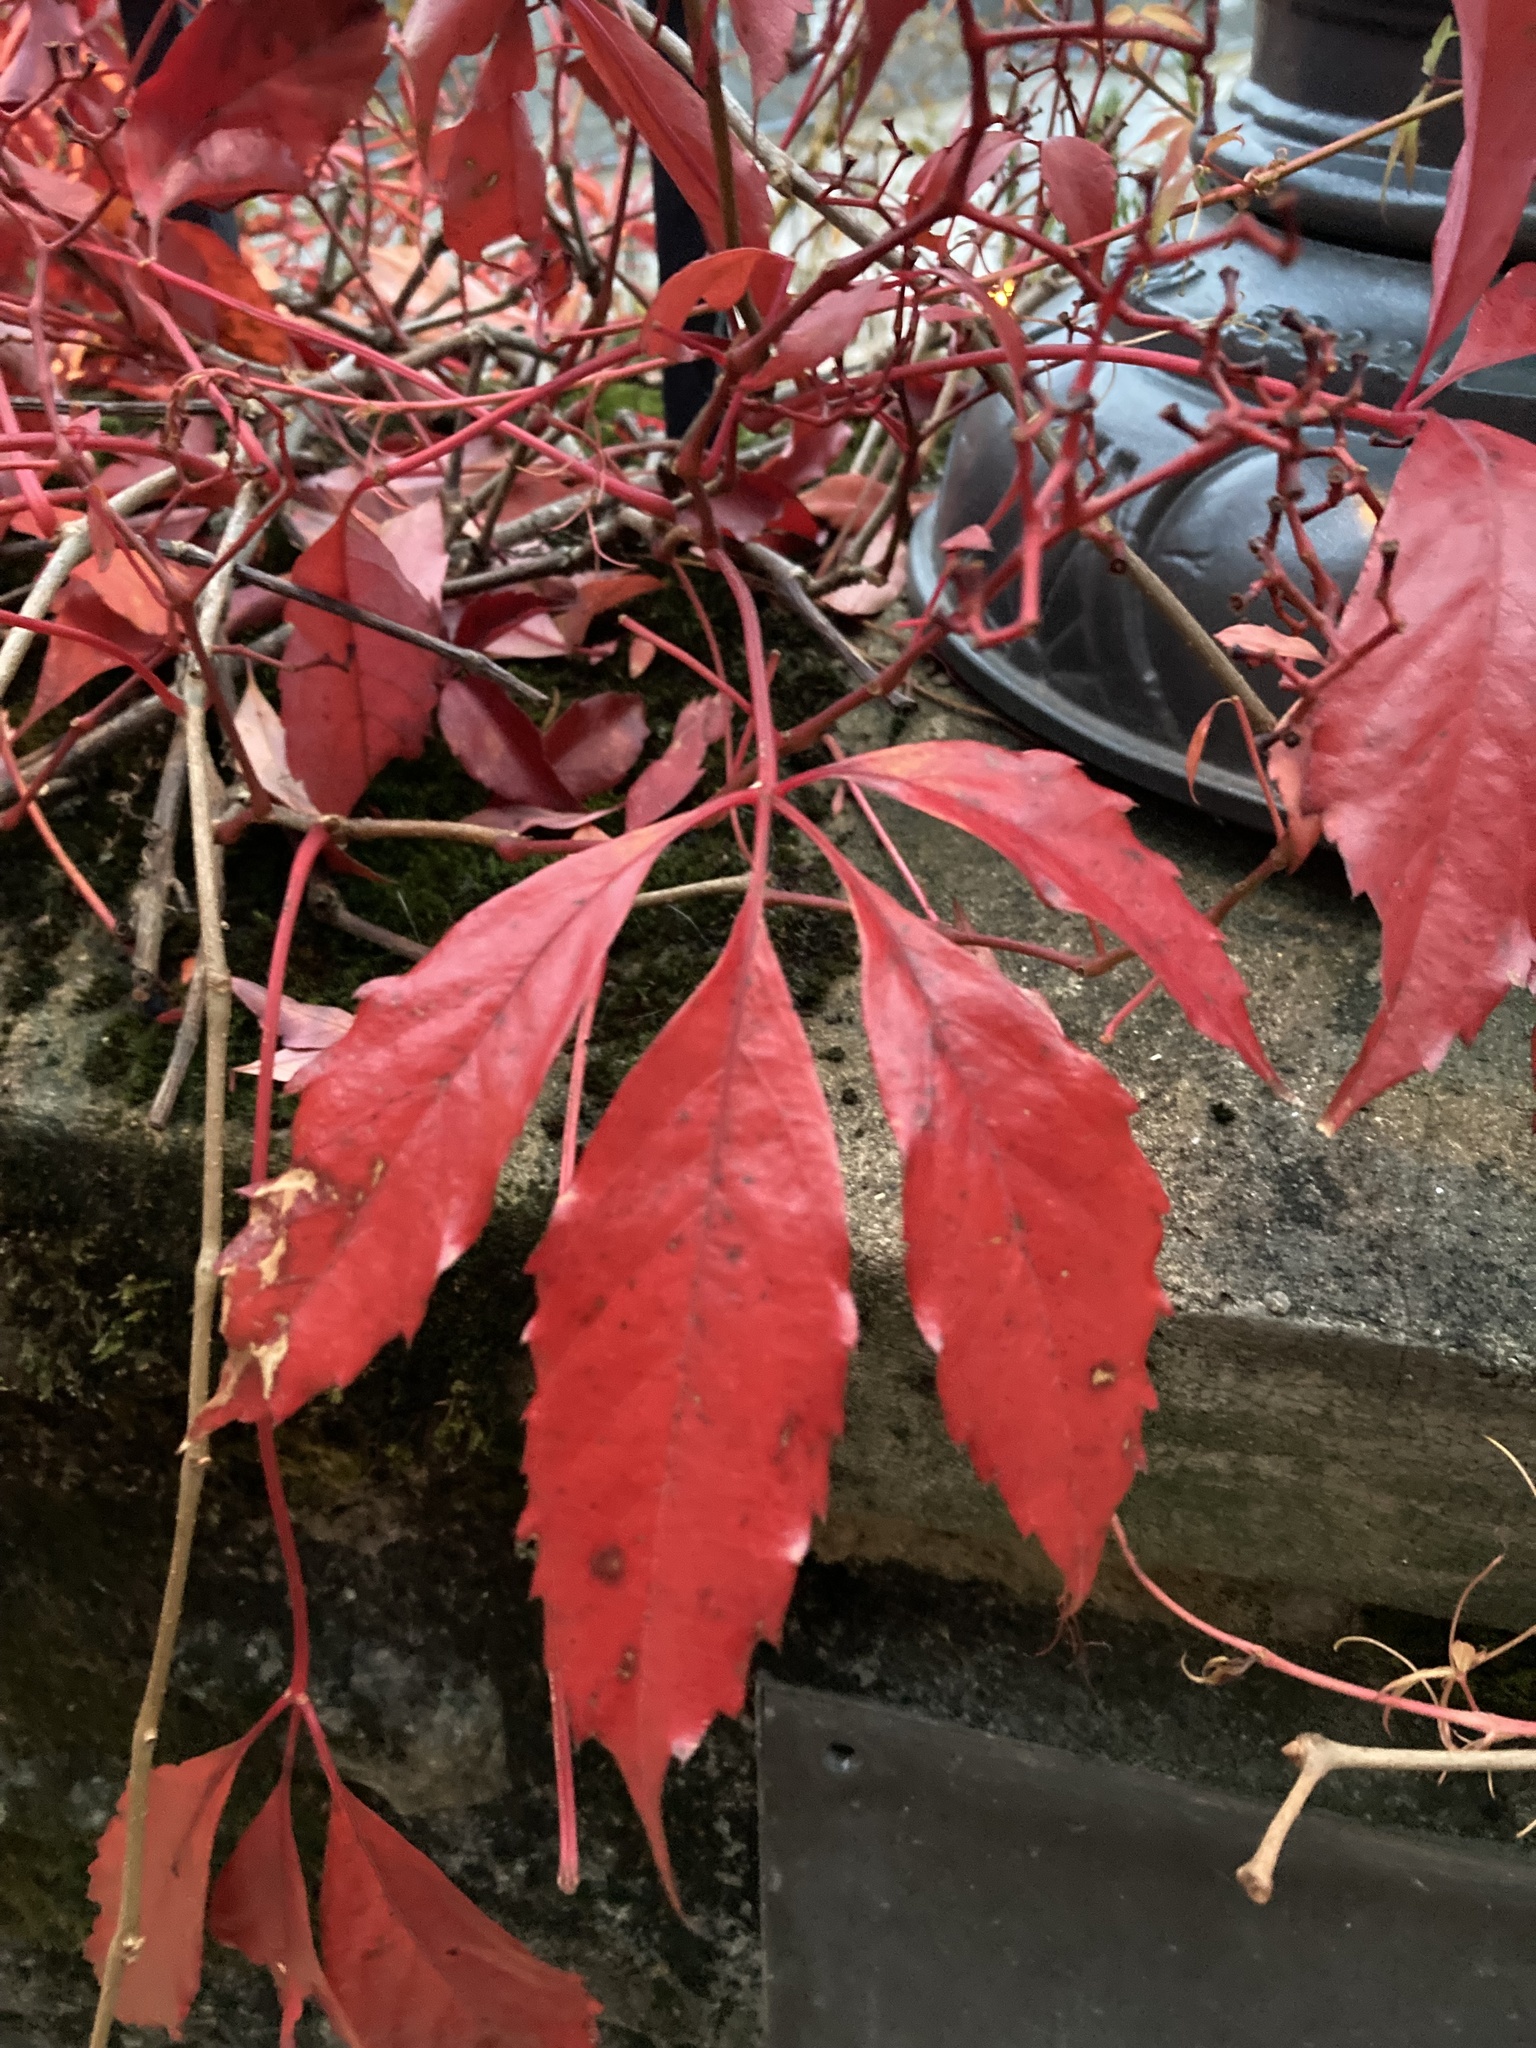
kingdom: Plantae
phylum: Tracheophyta
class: Magnoliopsida
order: Vitales
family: Vitaceae
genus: Parthenocissus
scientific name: Parthenocissus quinquefolia
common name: Virginia-creeper
